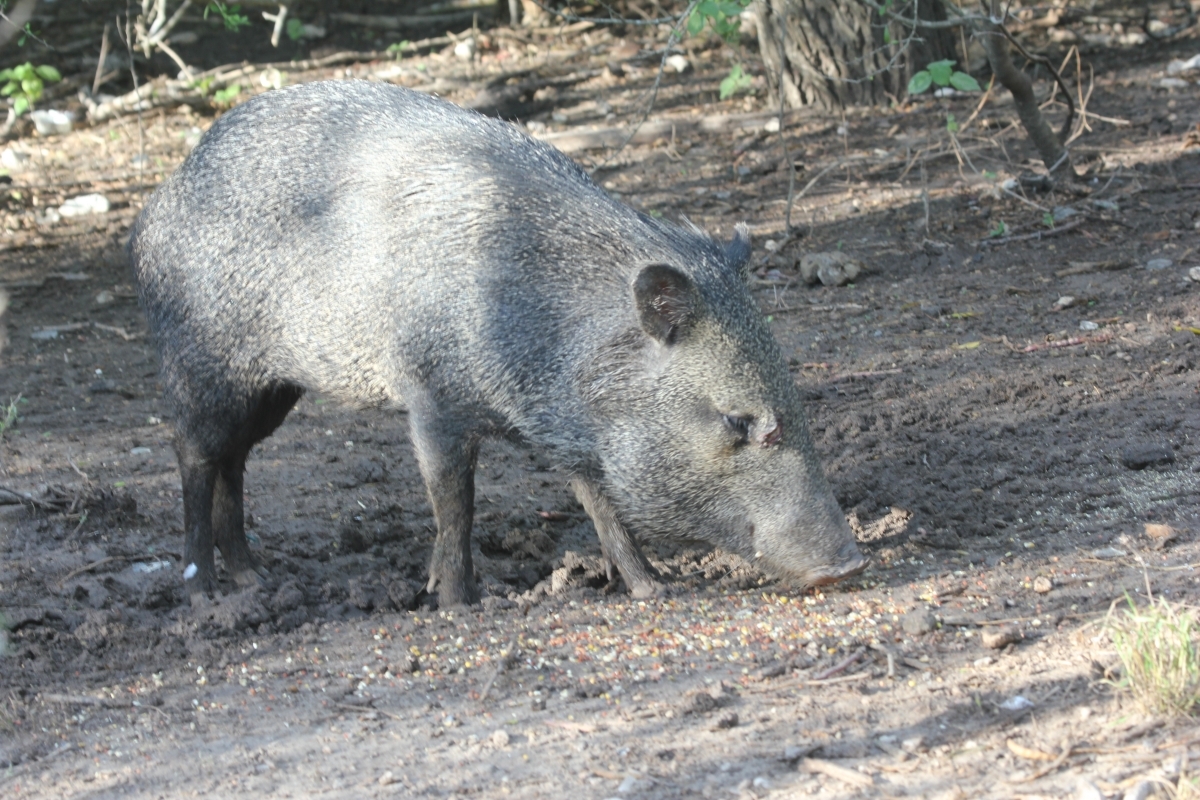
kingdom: Animalia
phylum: Chordata
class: Mammalia
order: Artiodactyla
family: Tayassuidae
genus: Pecari
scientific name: Pecari tajacu
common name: Collared peccary
